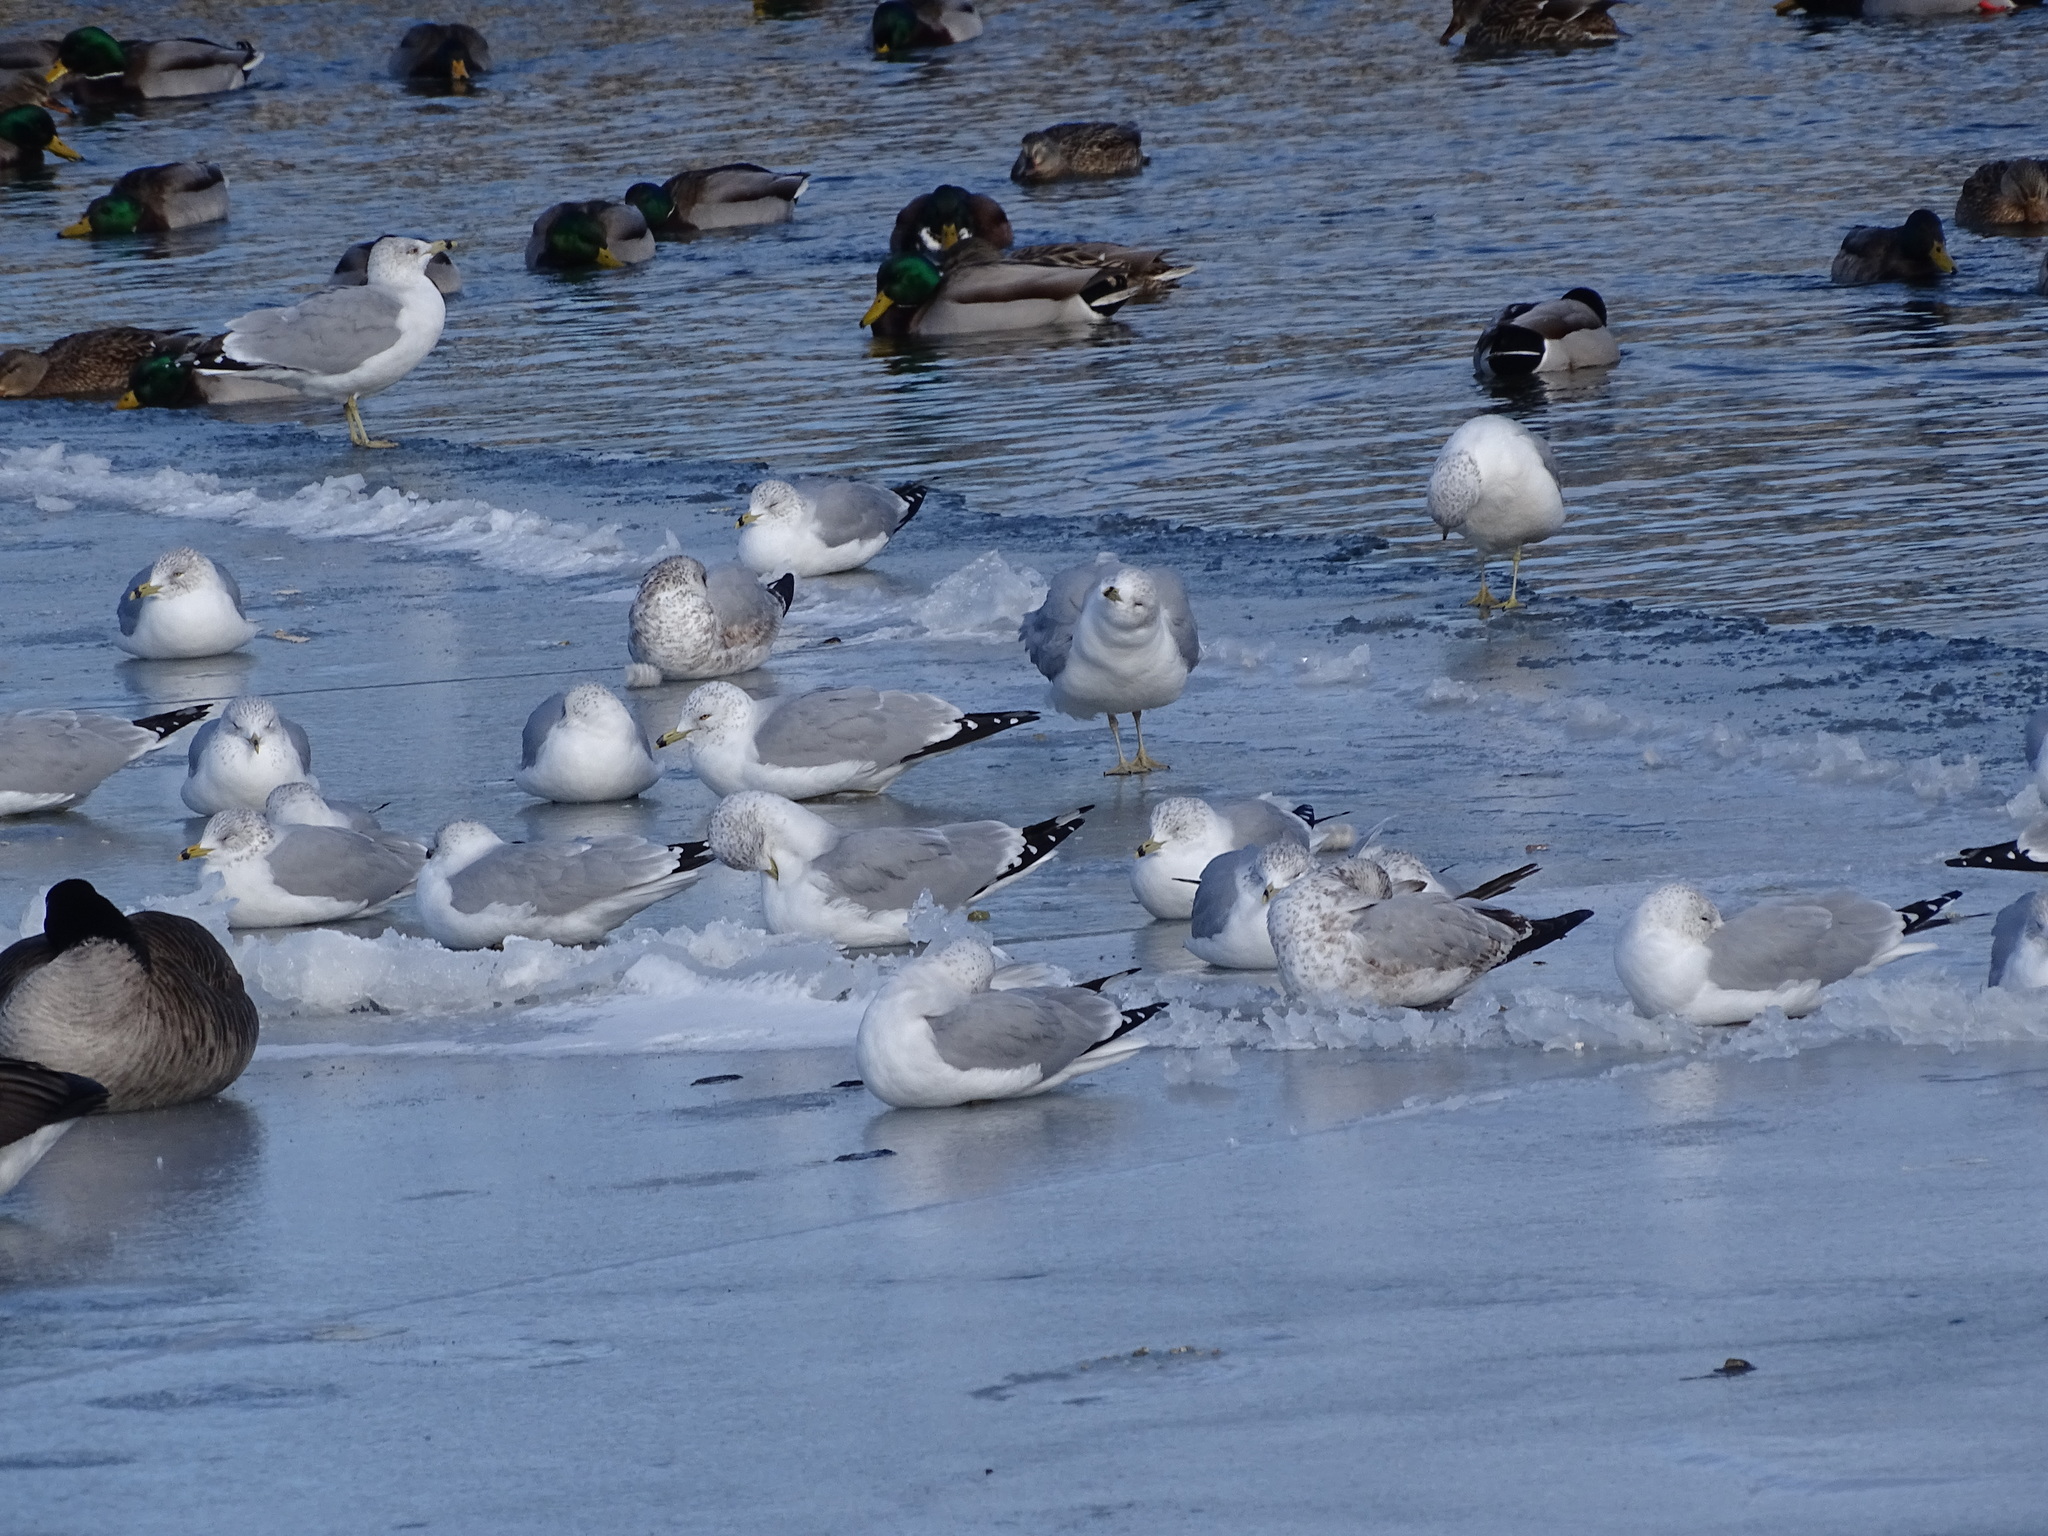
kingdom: Animalia
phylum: Chordata
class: Aves
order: Charadriiformes
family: Laridae
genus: Larus
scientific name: Larus delawarensis
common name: Ring-billed gull
